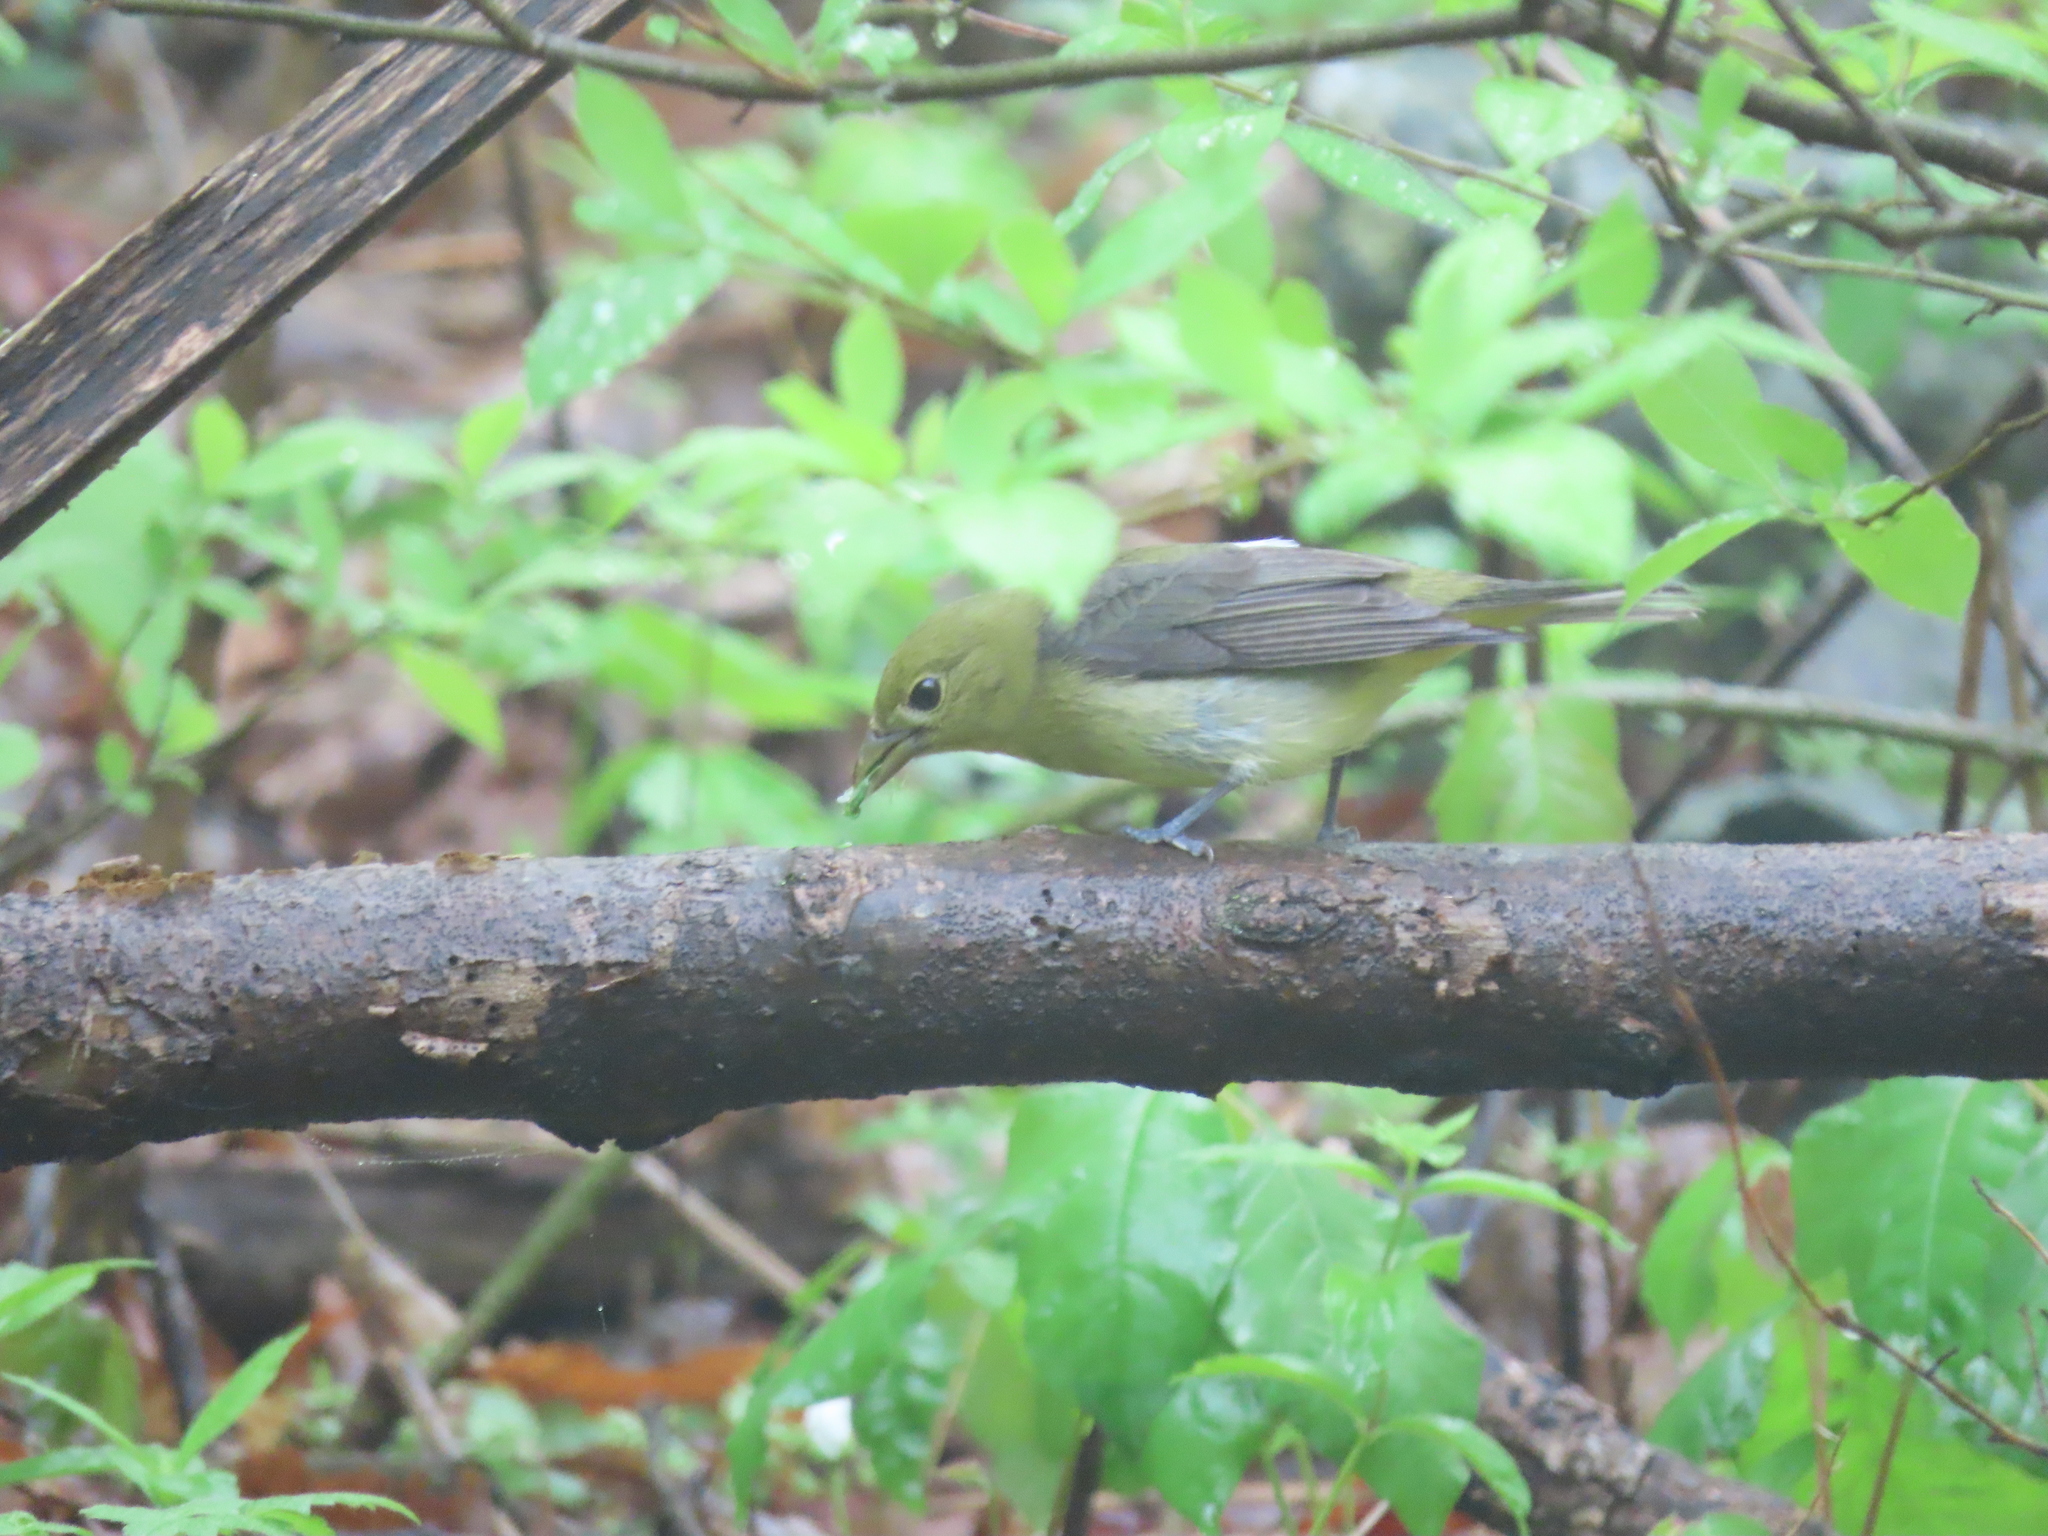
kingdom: Animalia
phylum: Chordata
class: Aves
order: Passeriformes
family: Cardinalidae
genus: Piranga
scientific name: Piranga olivacea
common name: Scarlet tanager
